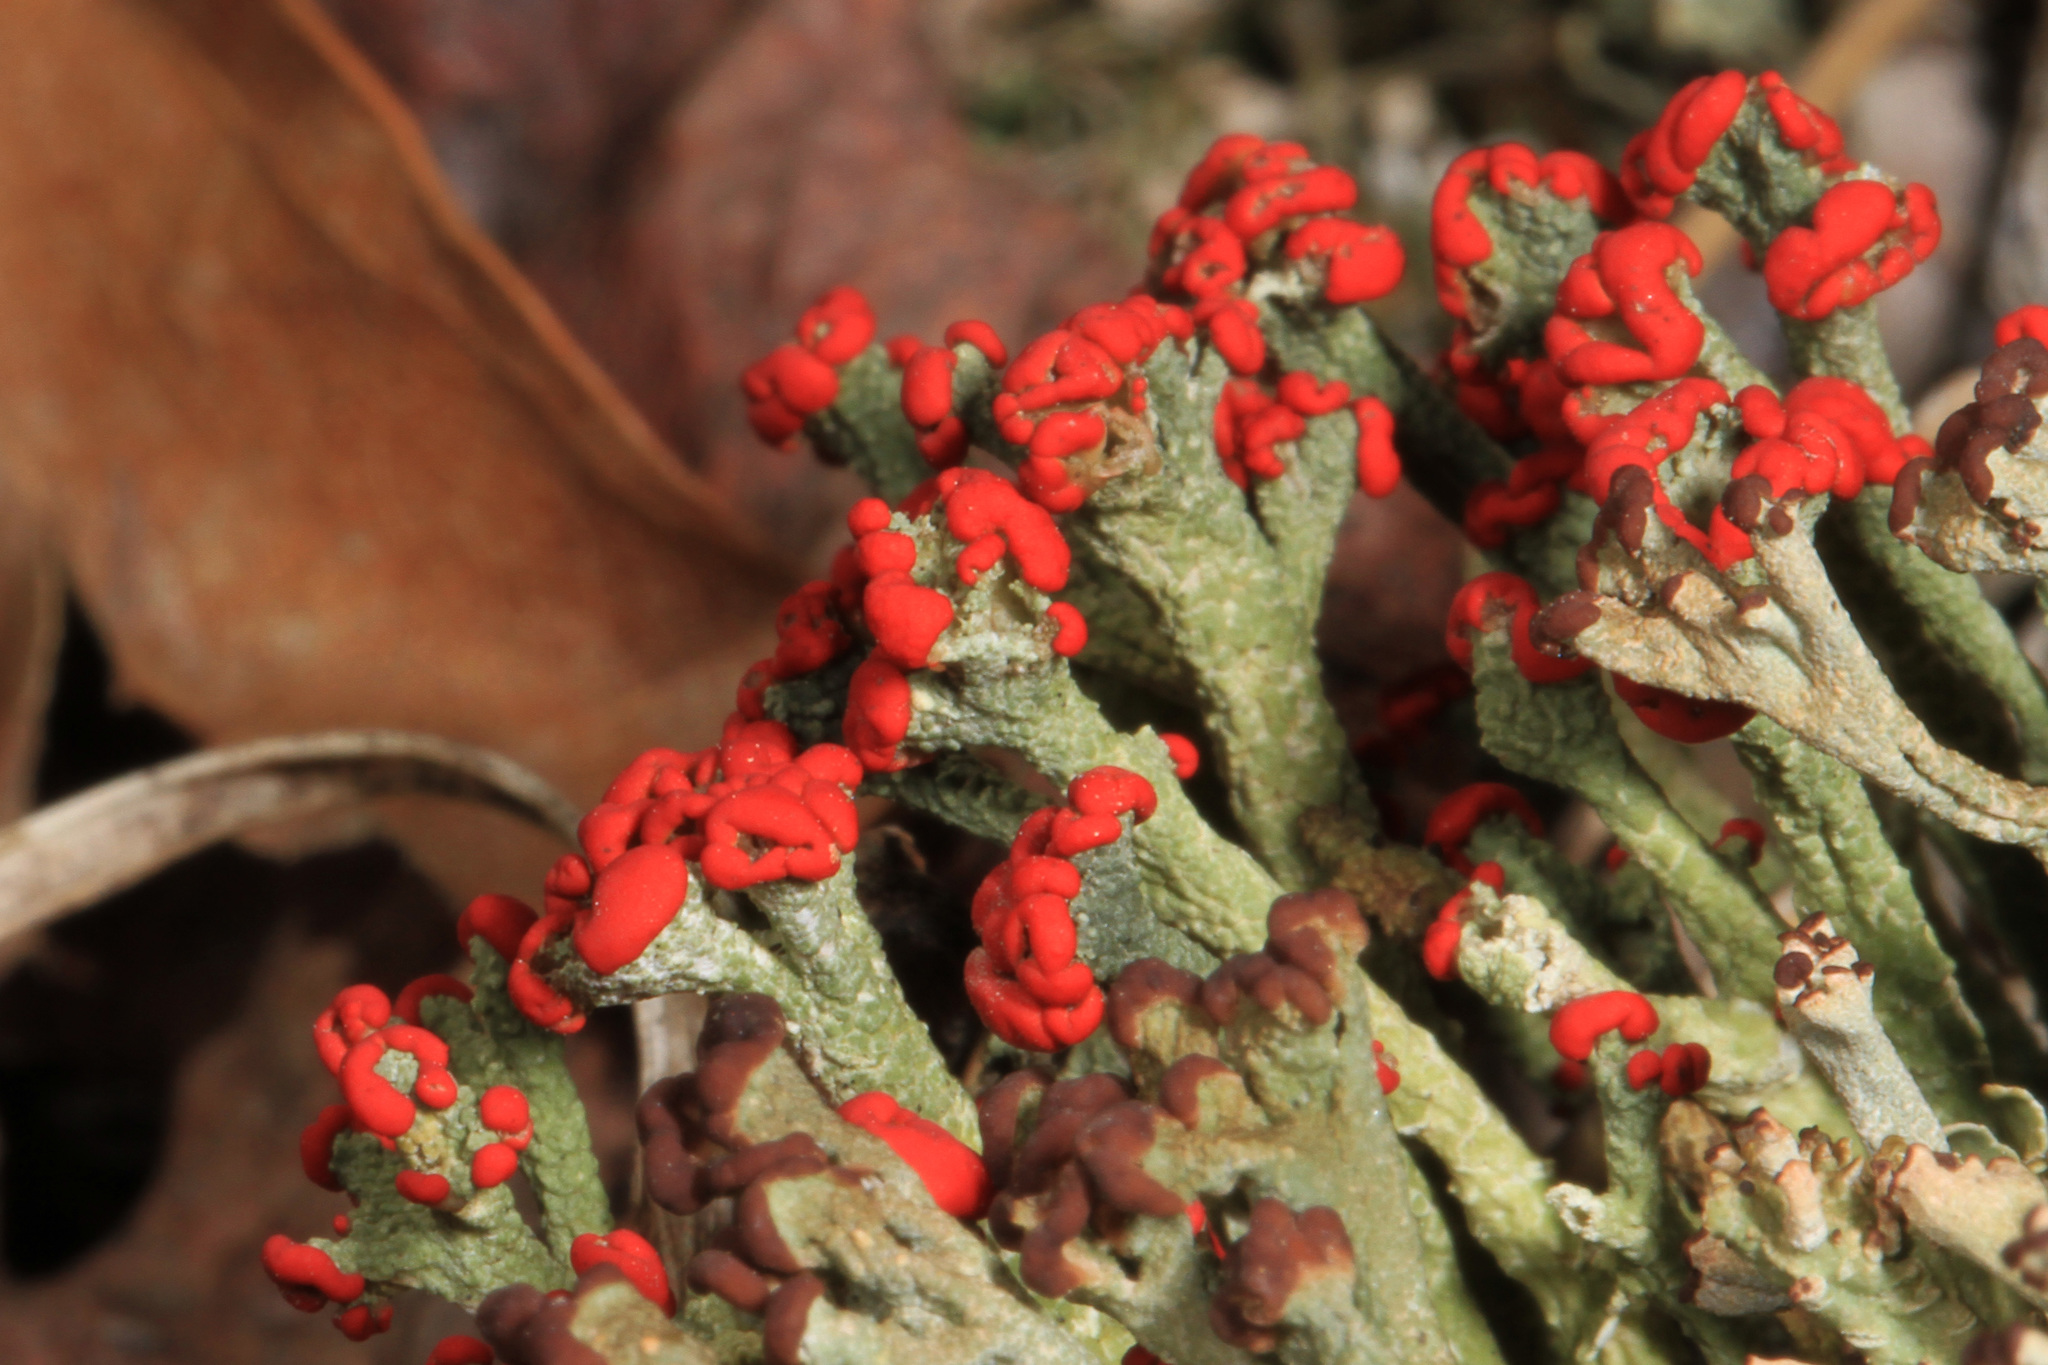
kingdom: Fungi
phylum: Ascomycota
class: Lecanoromycetes
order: Lecanorales
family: Cladoniaceae
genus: Cladonia
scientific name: Cladonia cristatella
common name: British soldier lichen
